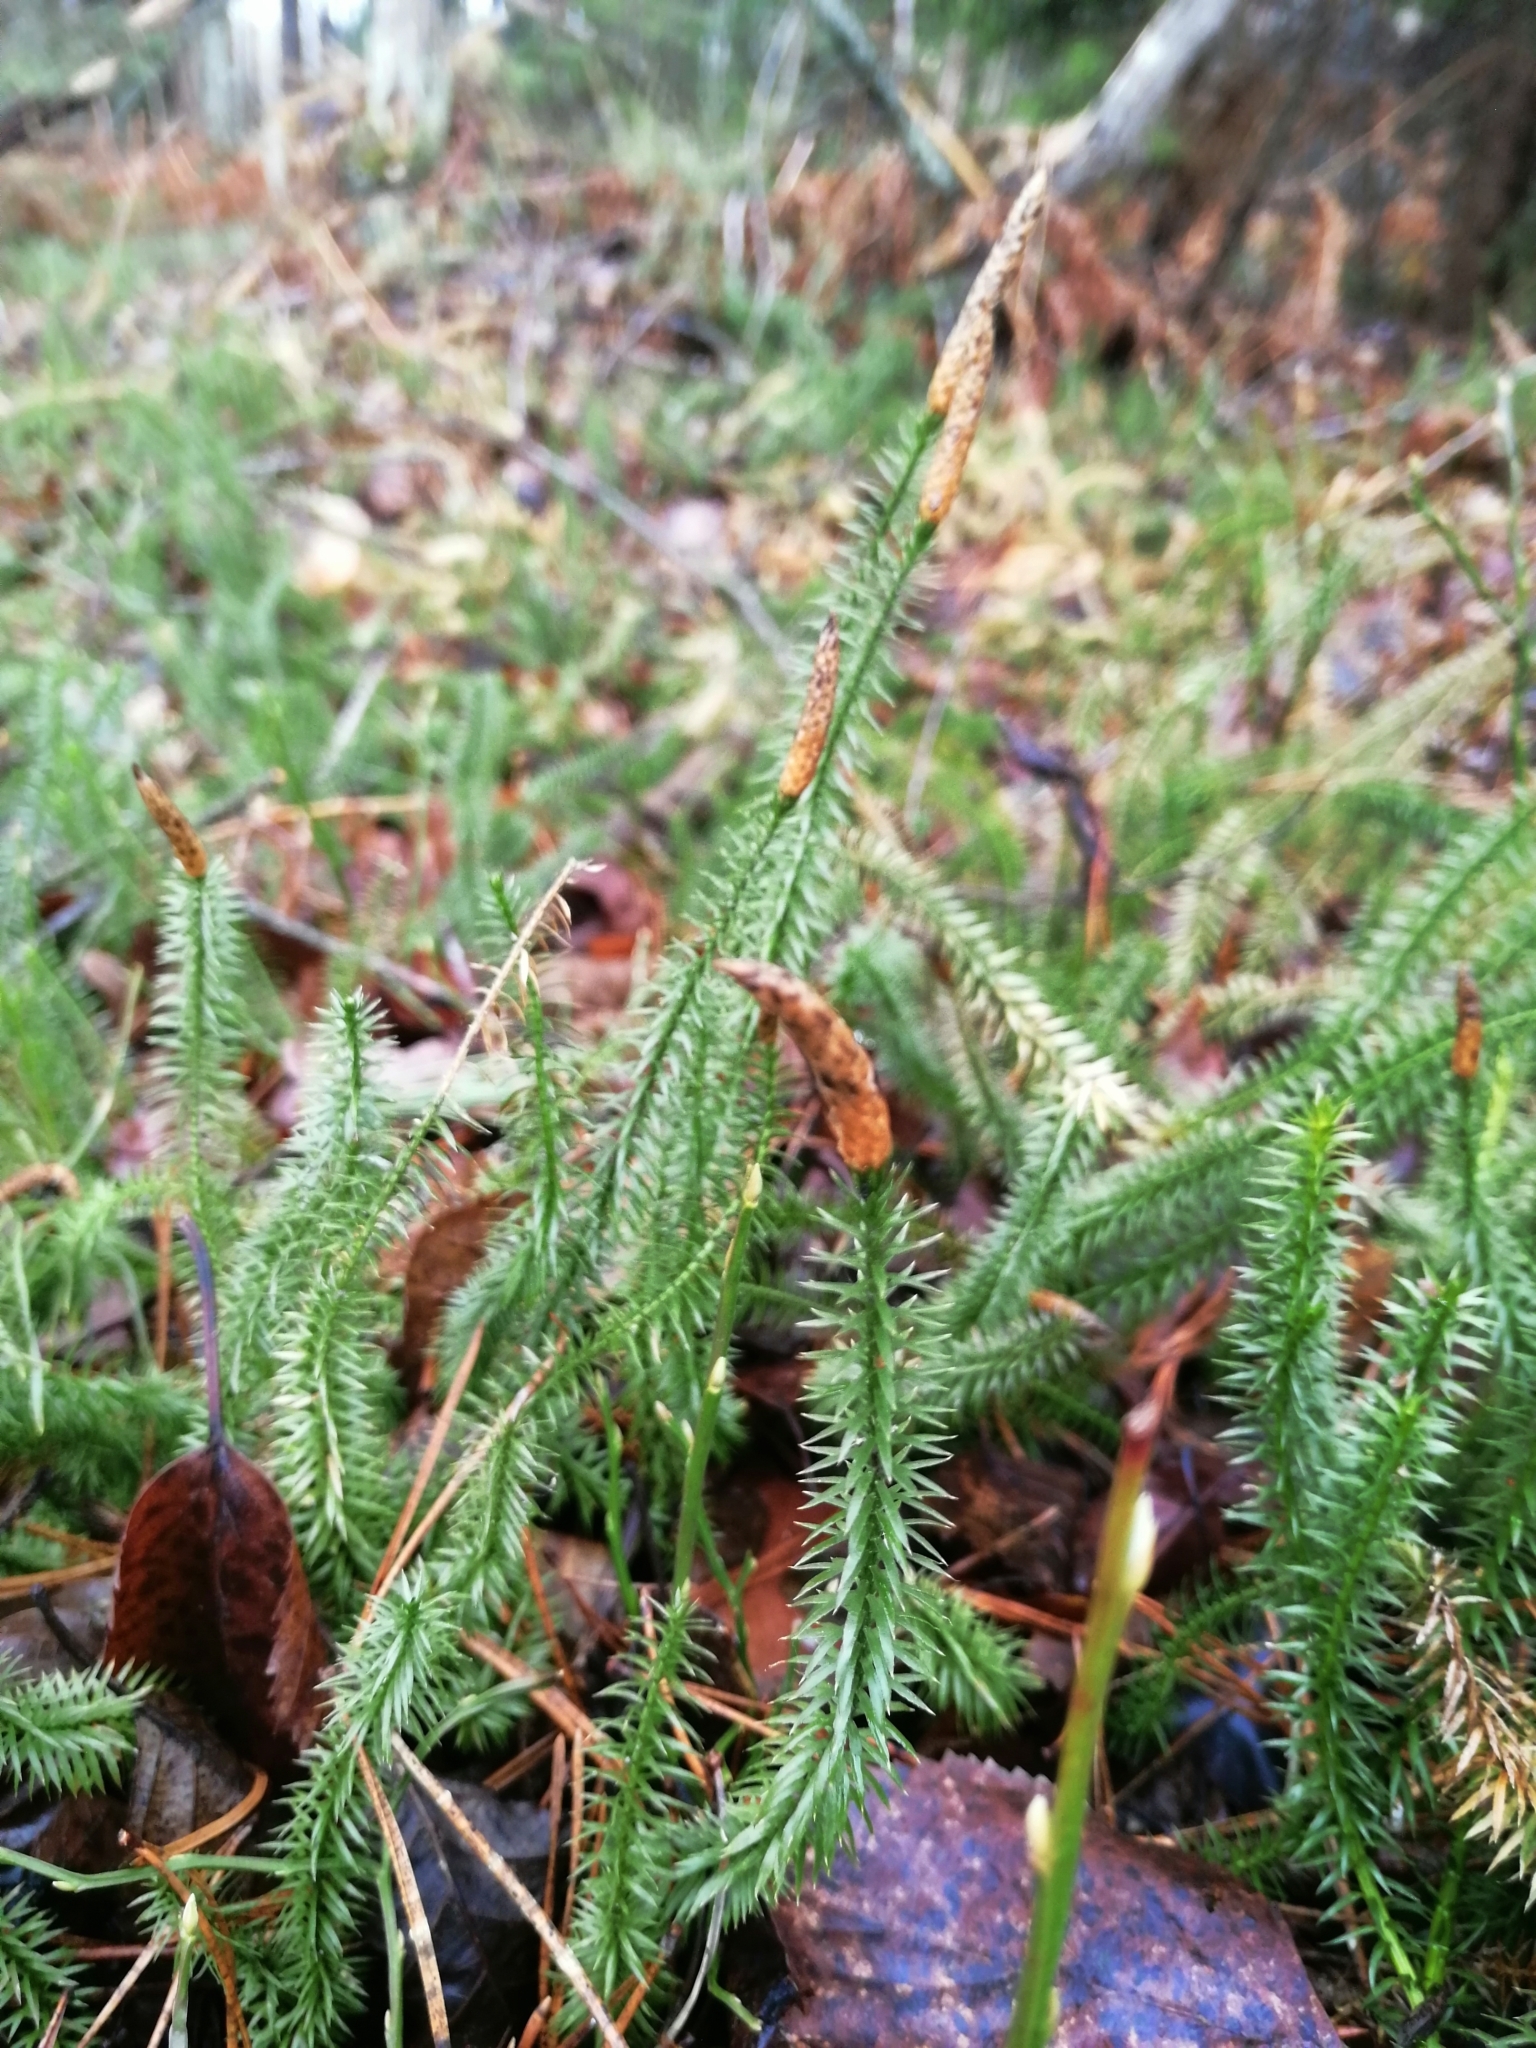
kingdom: Plantae
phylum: Tracheophyta
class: Lycopodiopsida
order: Lycopodiales
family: Lycopodiaceae
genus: Spinulum
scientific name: Spinulum annotinum
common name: Interrupted club-moss
